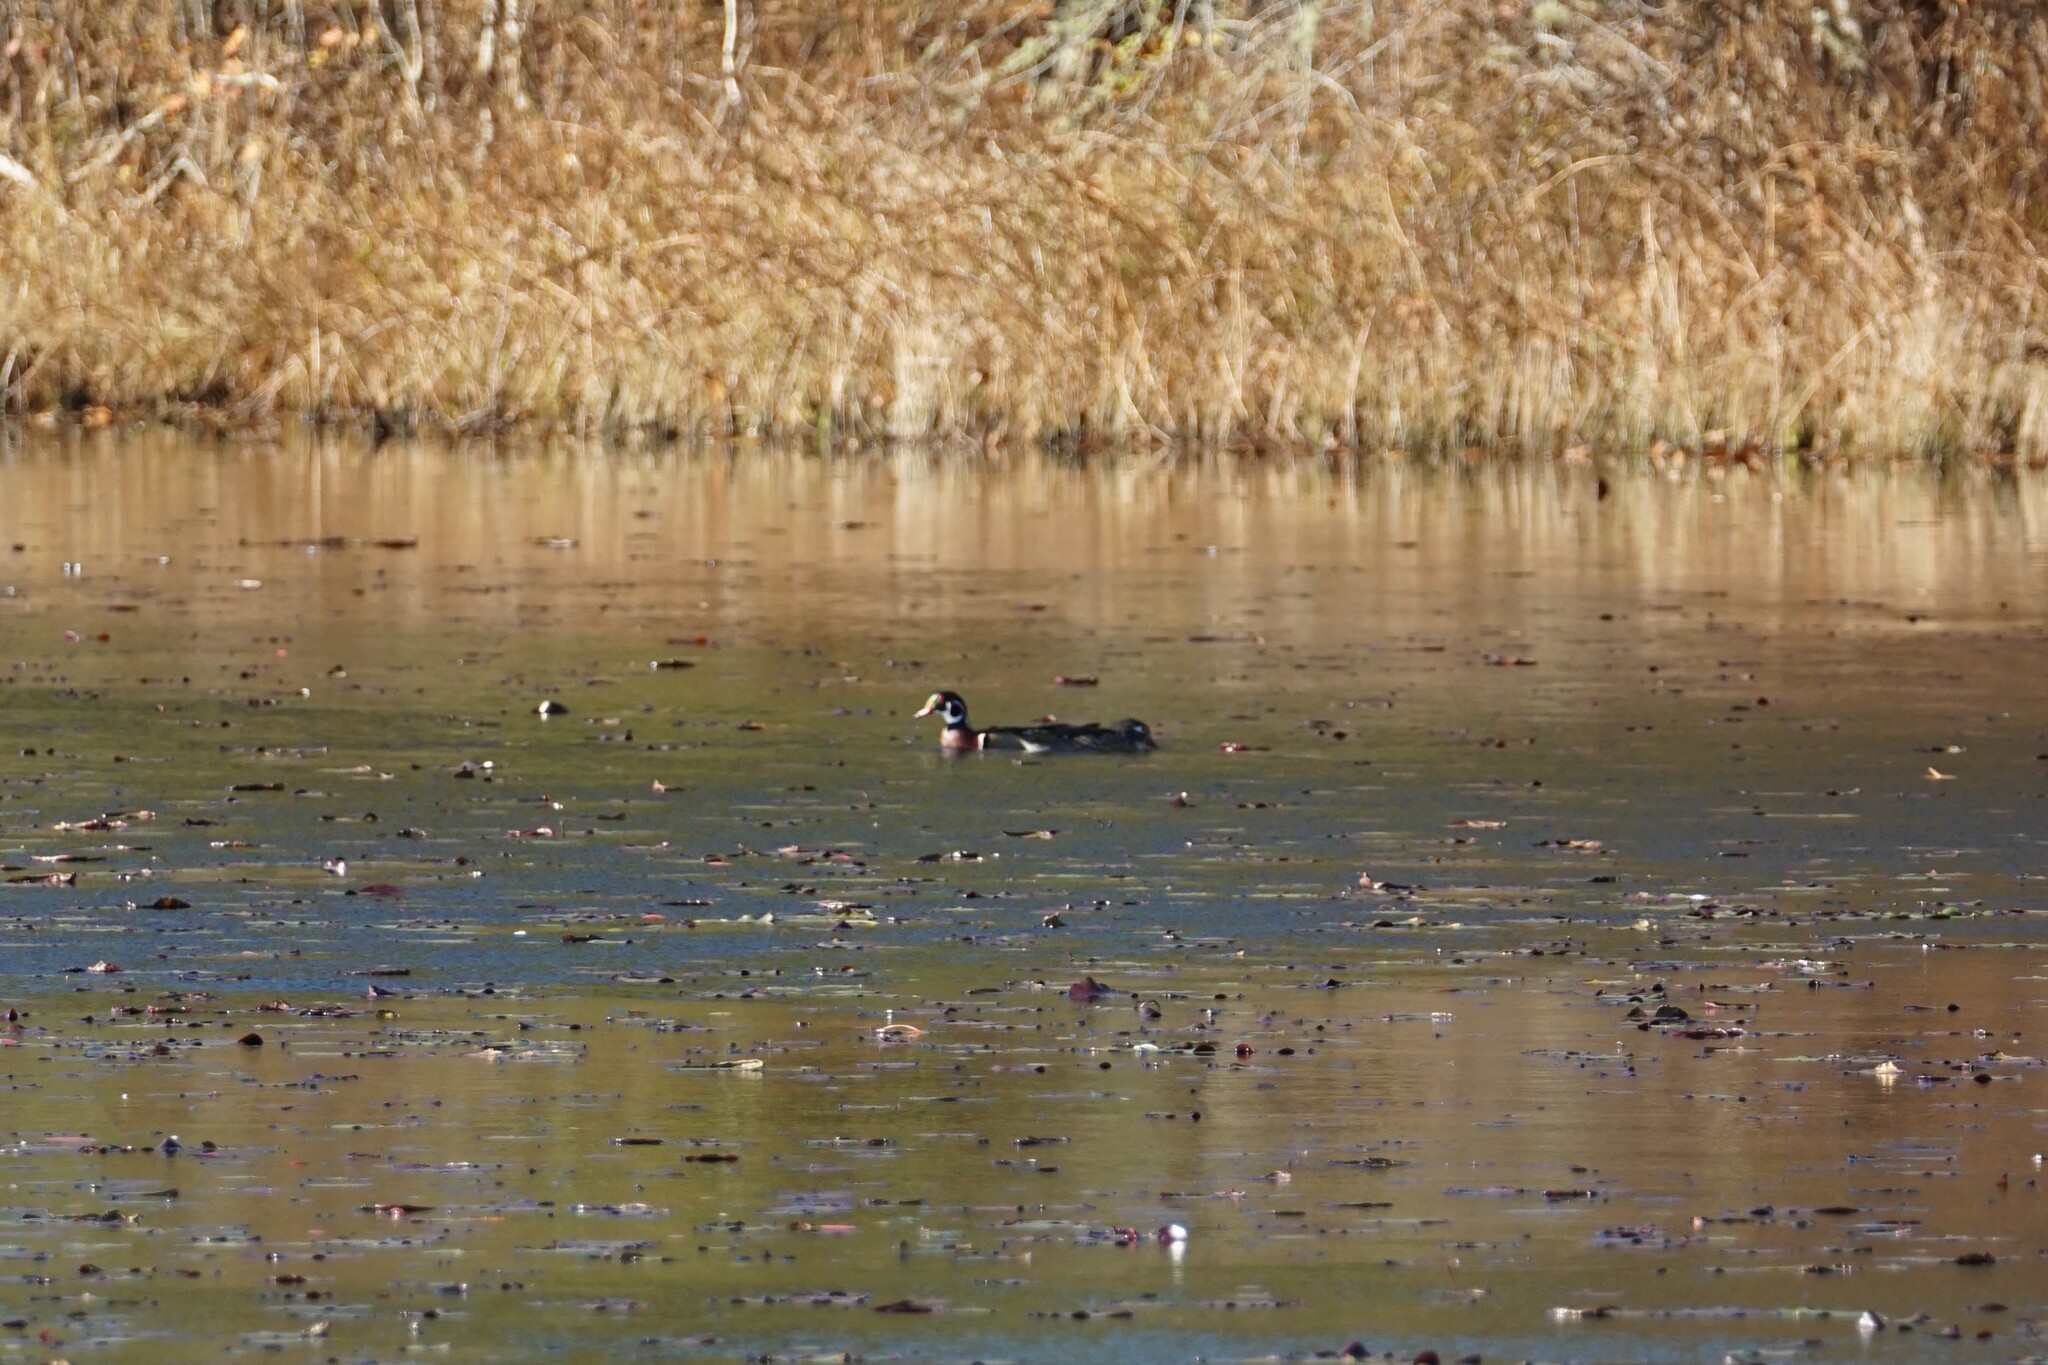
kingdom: Animalia
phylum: Chordata
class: Aves
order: Anseriformes
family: Anatidae
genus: Aix
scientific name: Aix sponsa
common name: Wood duck
